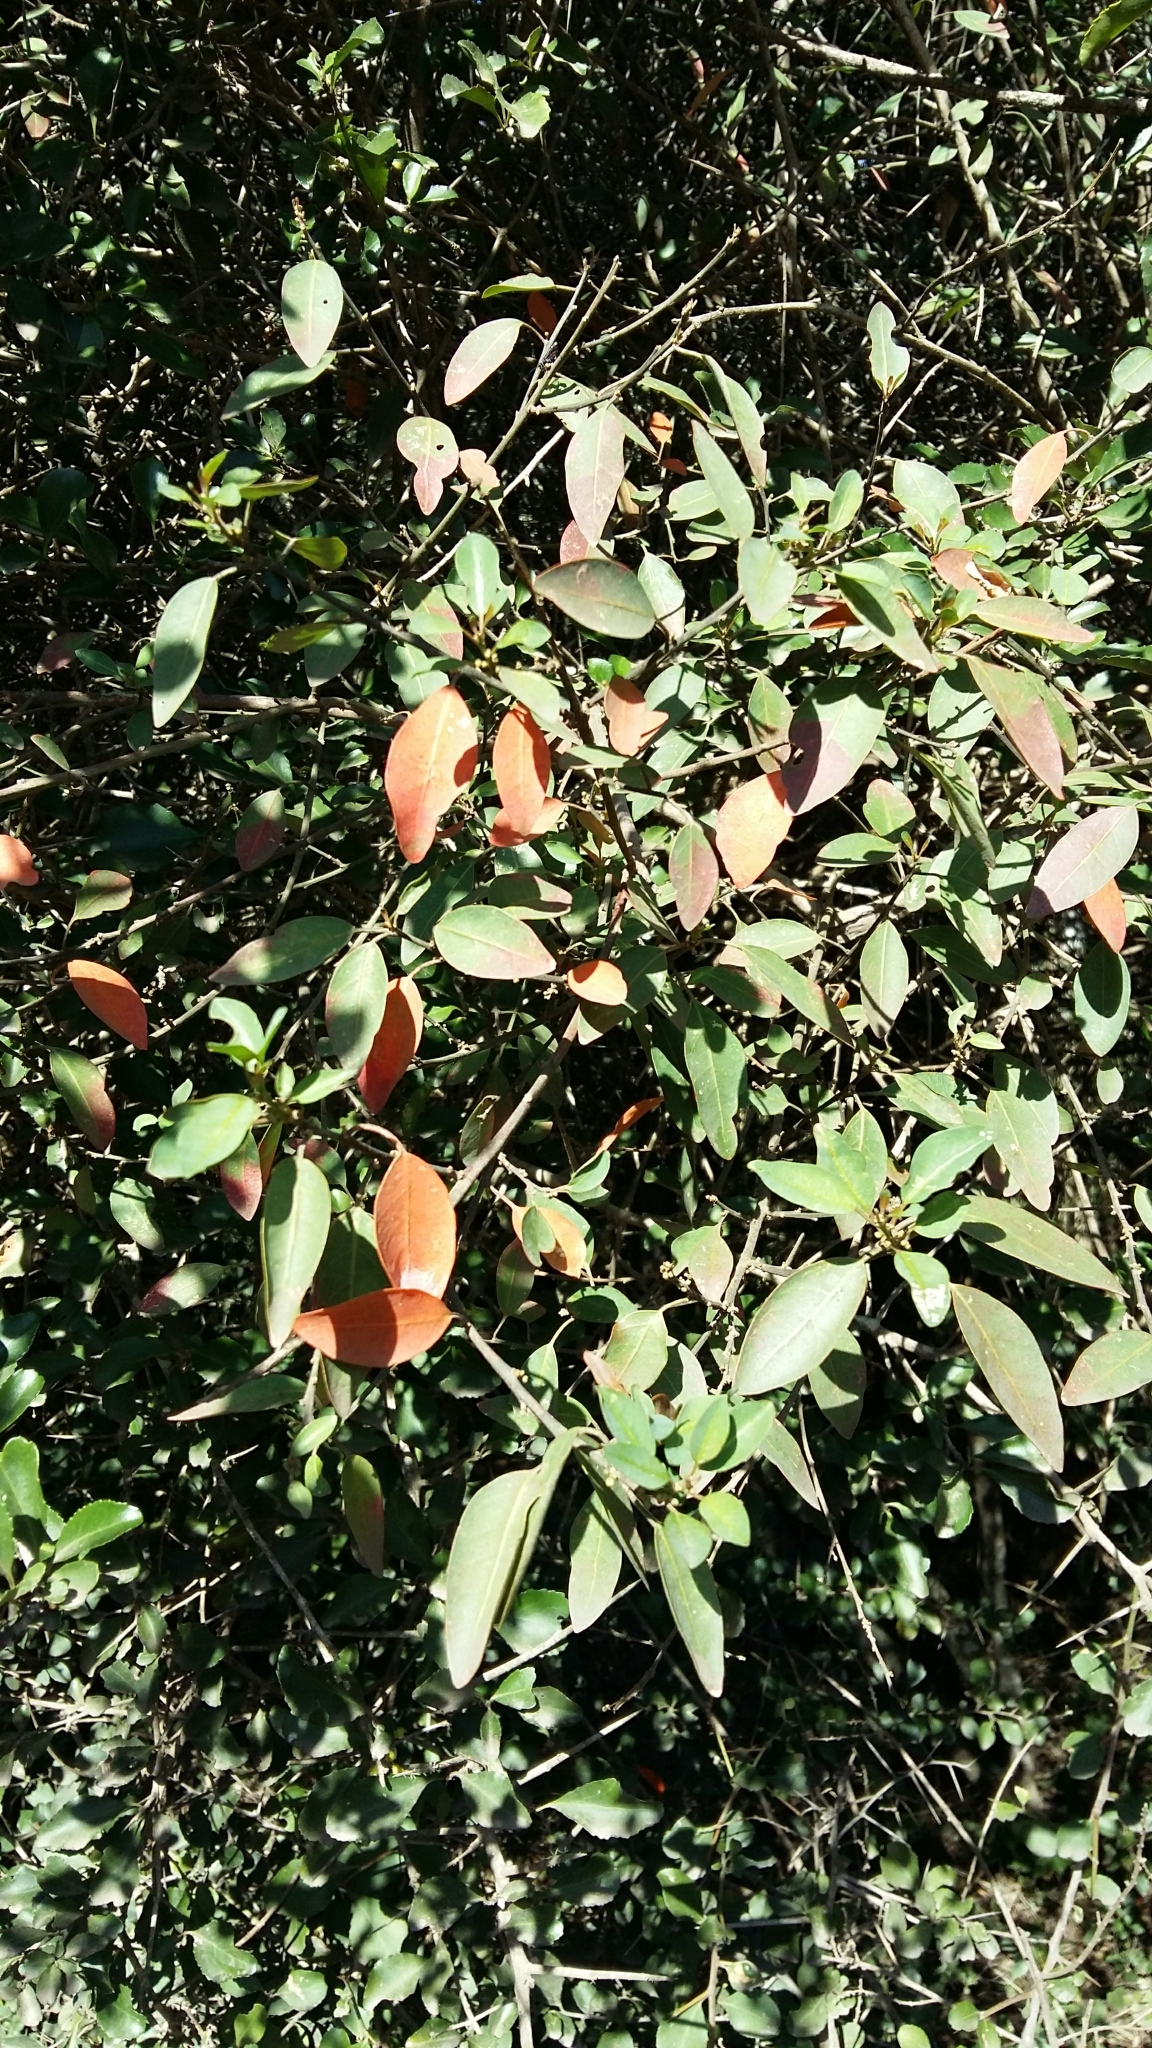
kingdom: Plantae
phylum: Tracheophyta
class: Magnoliopsida
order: Malpighiales
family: Peraceae
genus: Clutia
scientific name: Clutia pulchella
